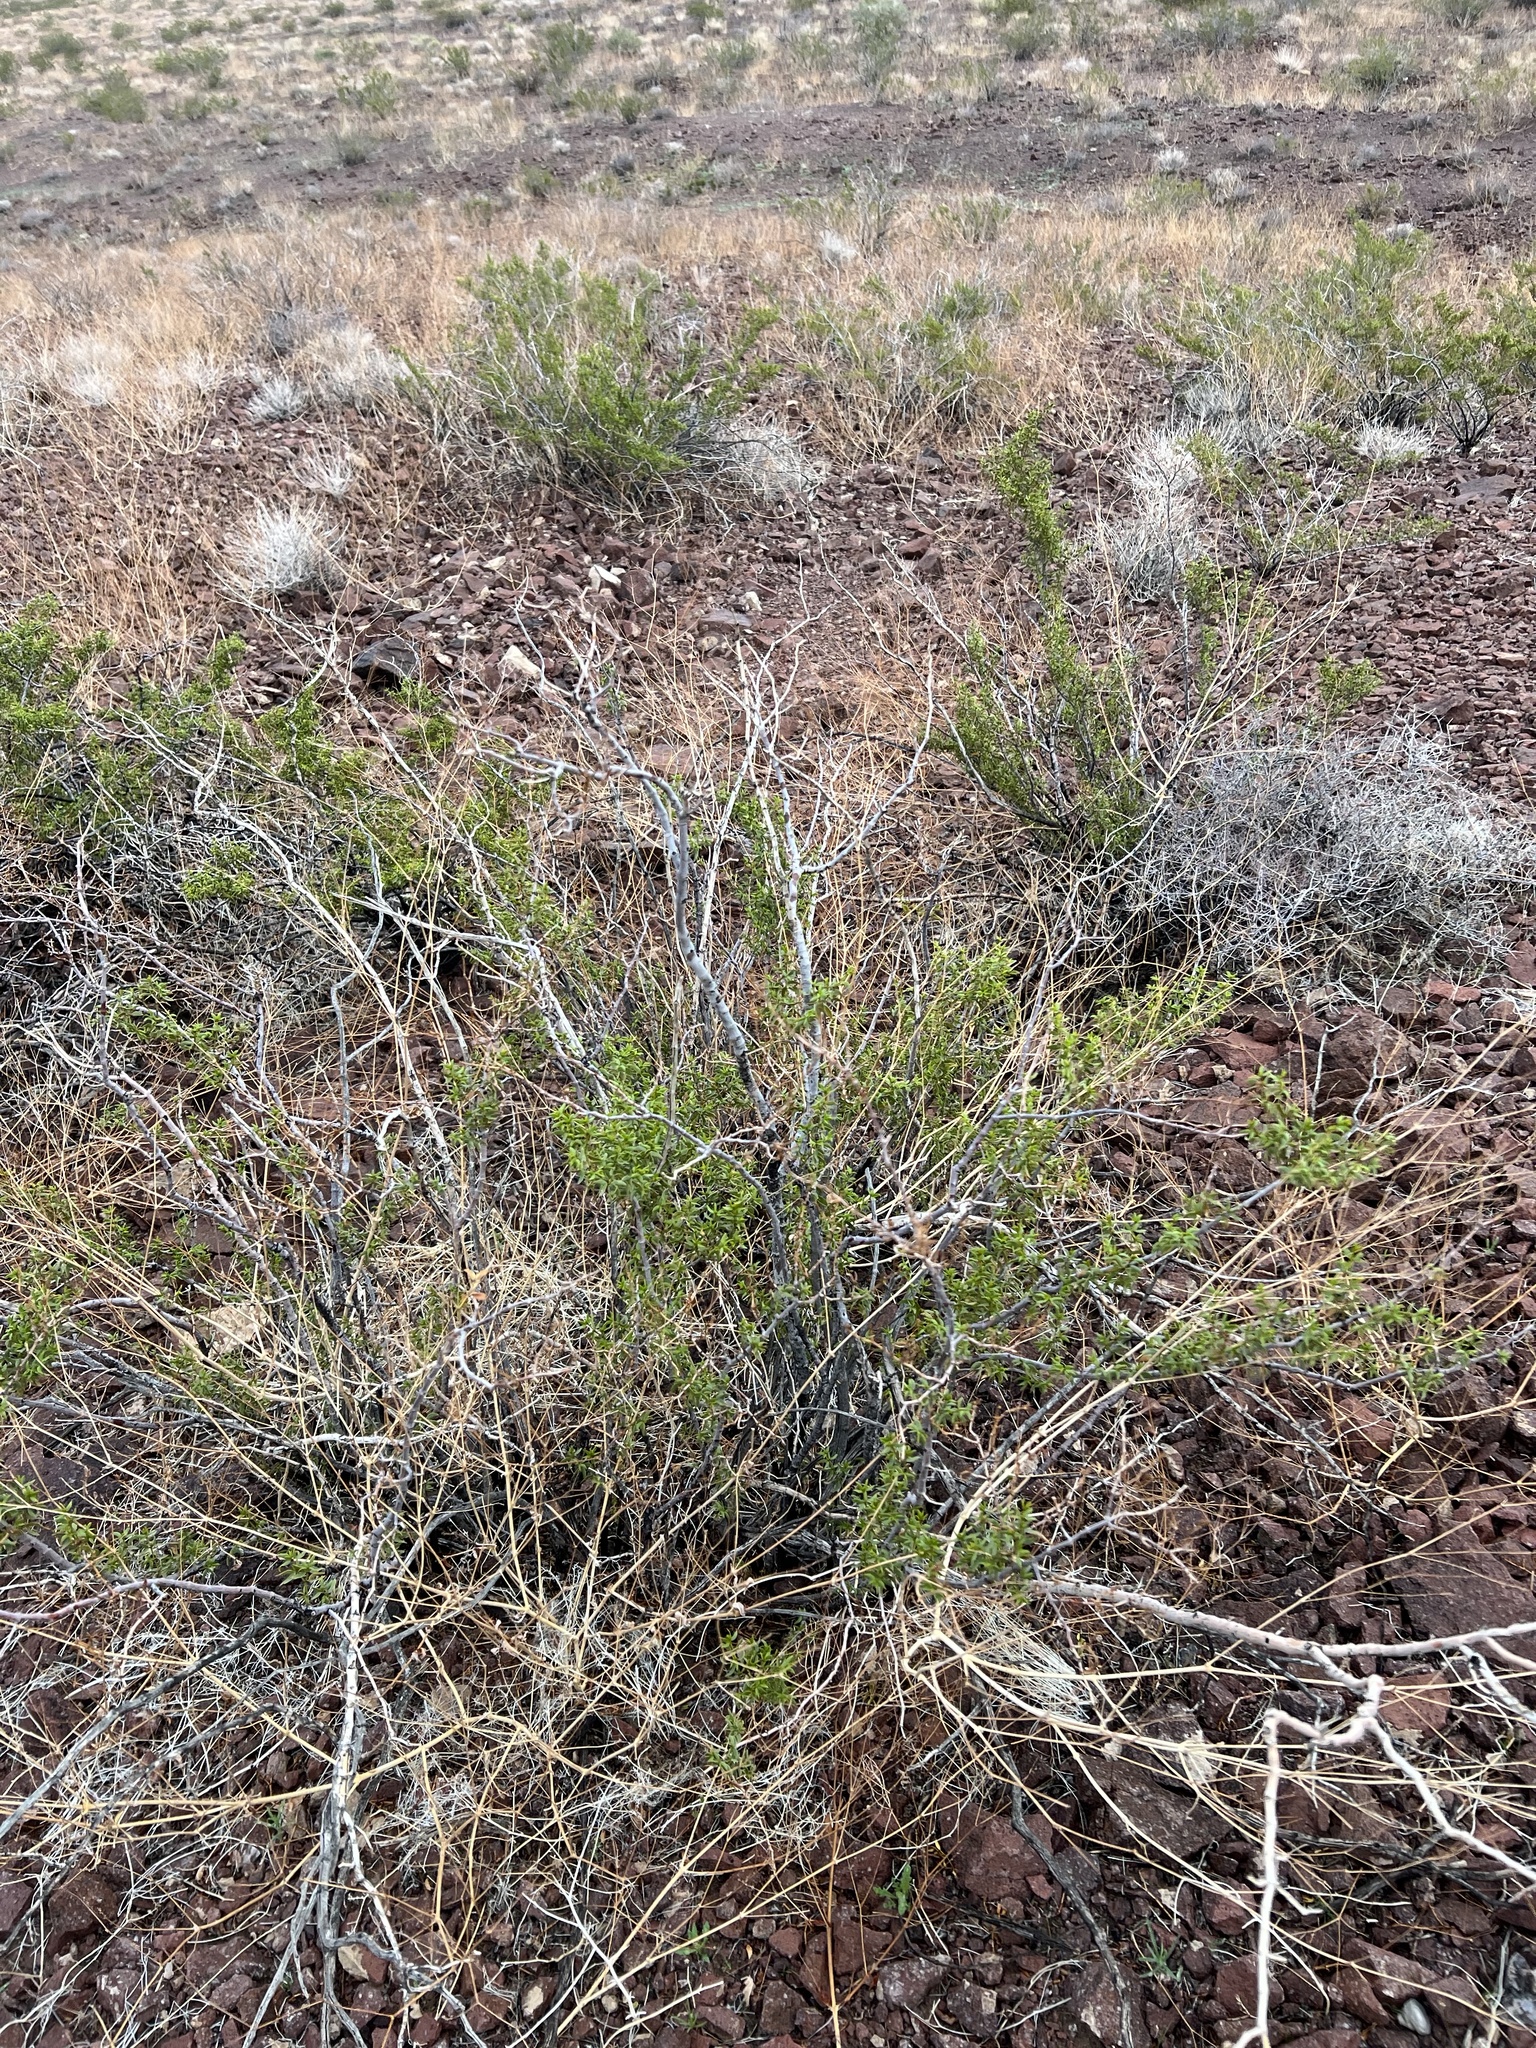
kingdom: Plantae
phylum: Tracheophyta
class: Magnoliopsida
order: Zygophyllales
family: Zygophyllaceae
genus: Larrea
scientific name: Larrea tridentata
